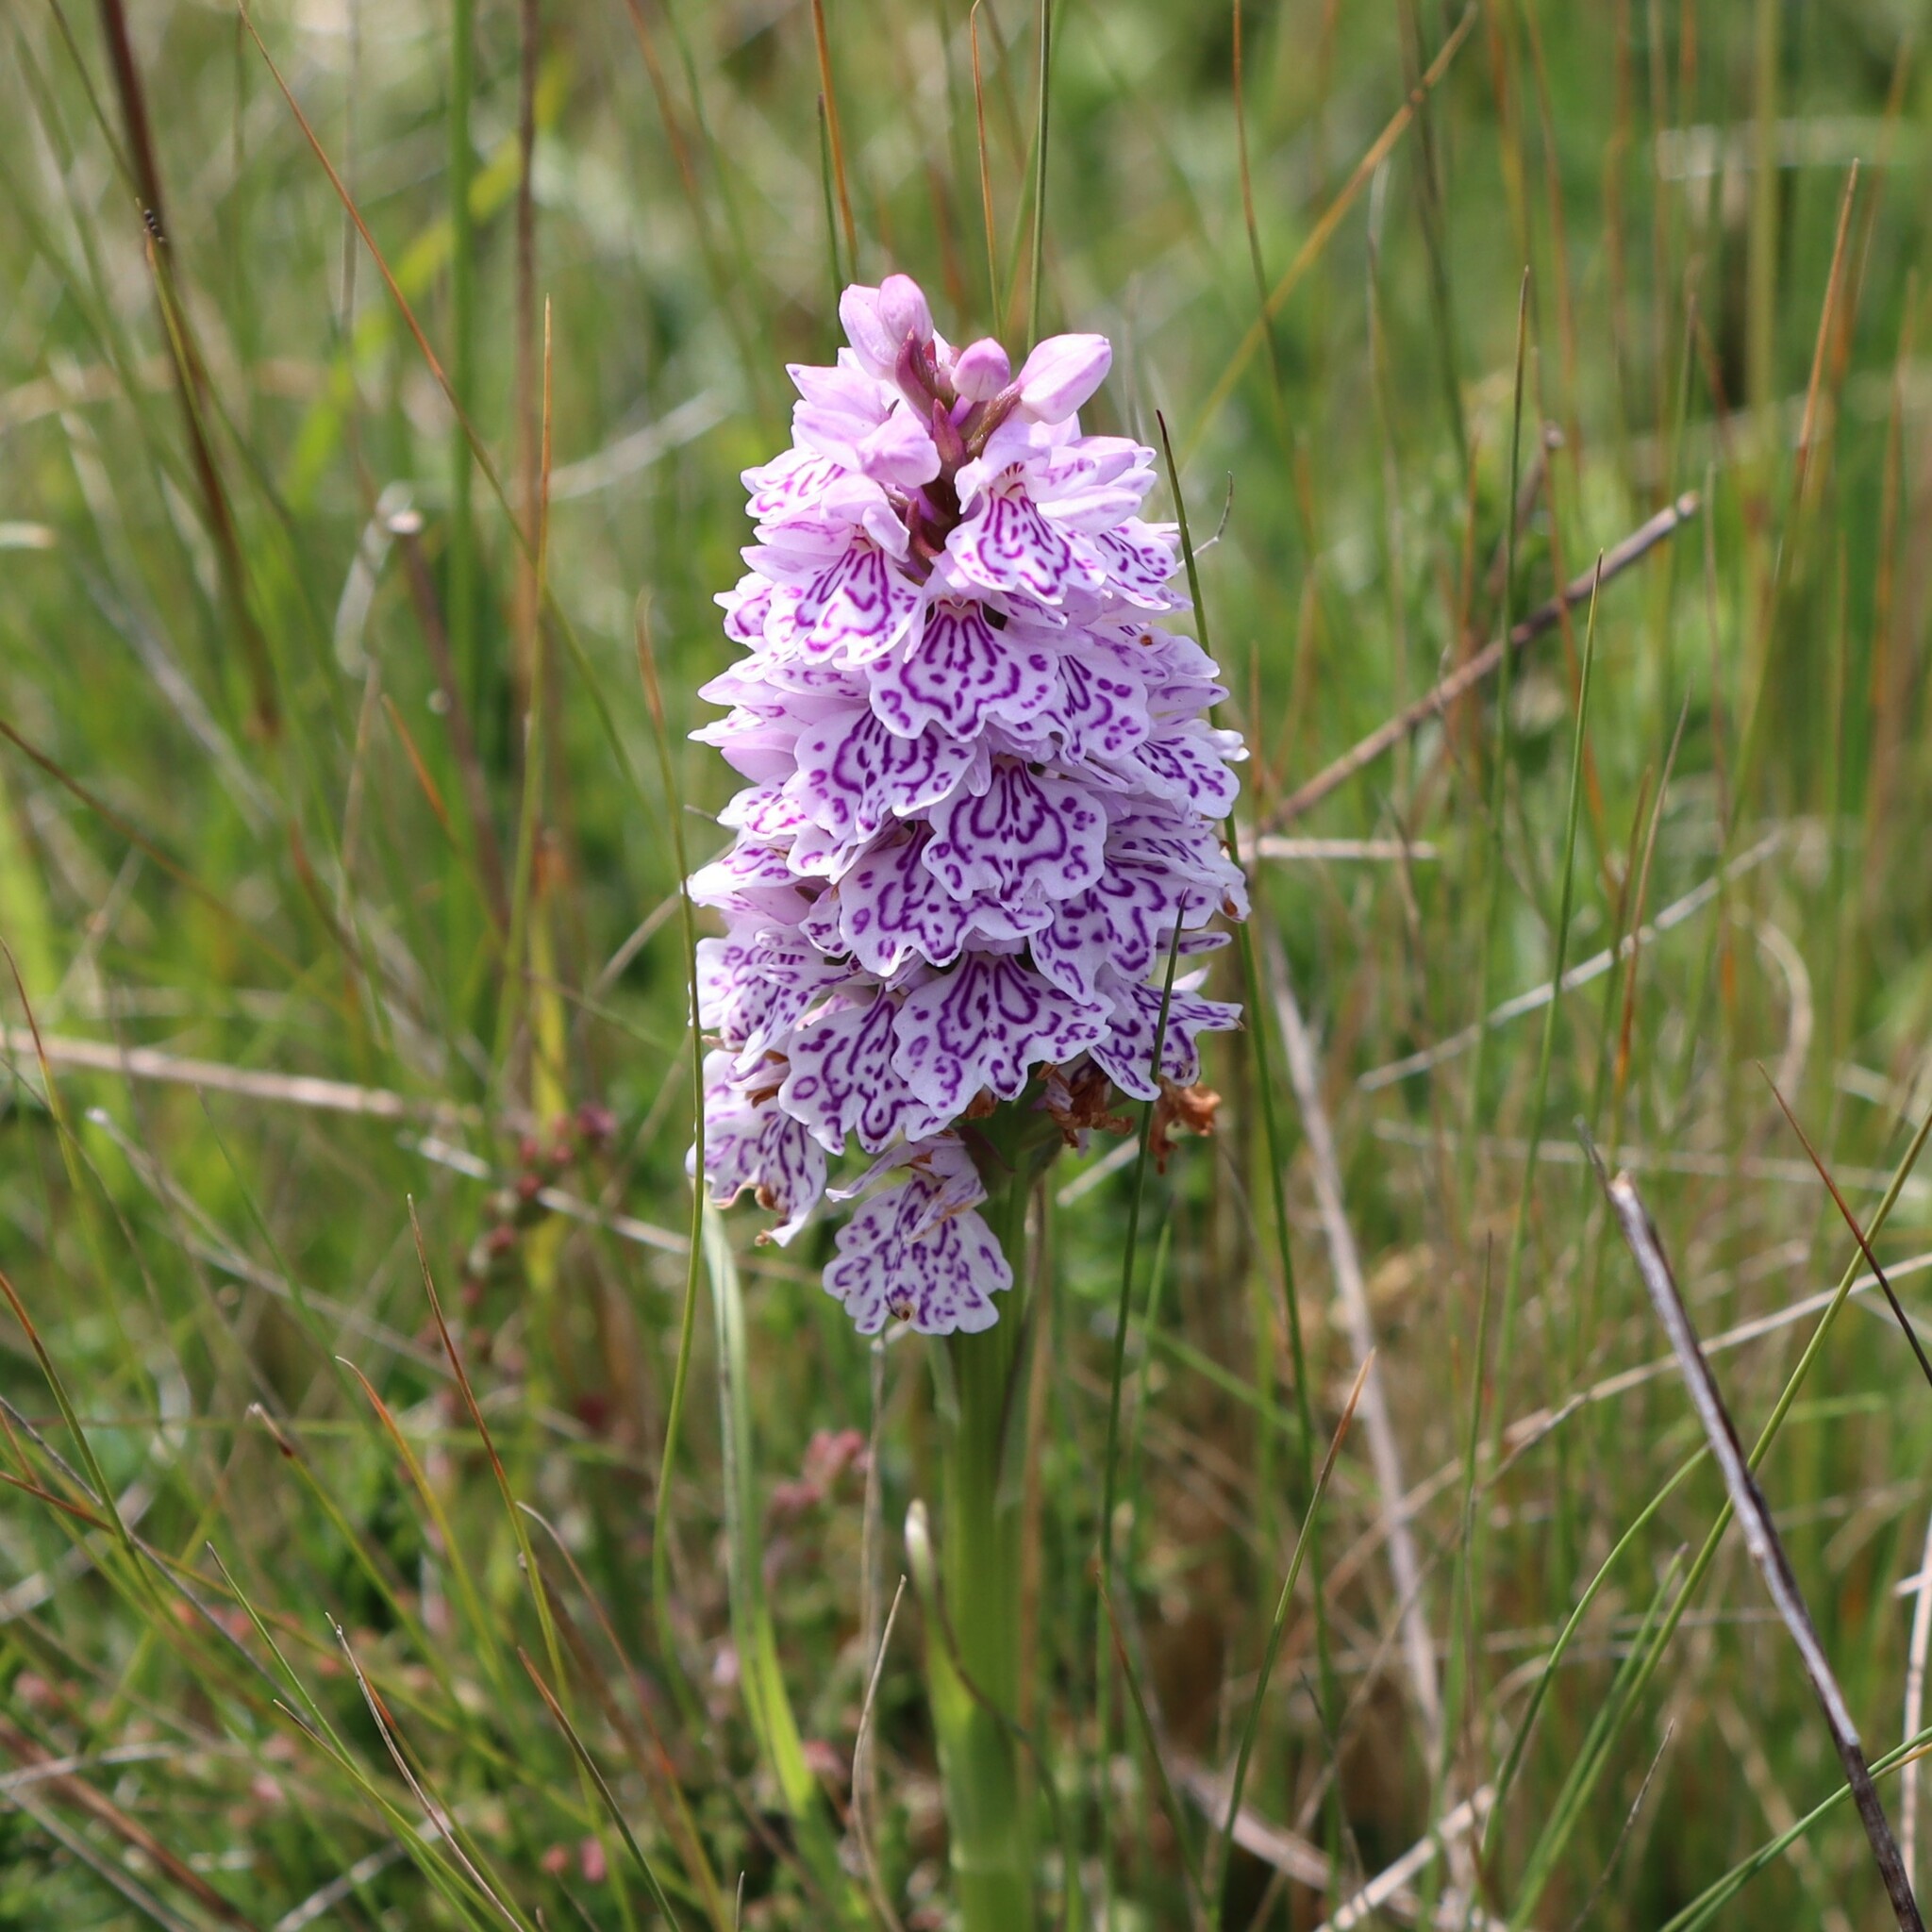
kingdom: Plantae
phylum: Tracheophyta
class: Liliopsida
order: Asparagales
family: Orchidaceae
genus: Dactylorhiza
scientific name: Dactylorhiza maculata
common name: Heath spotted-orchid
